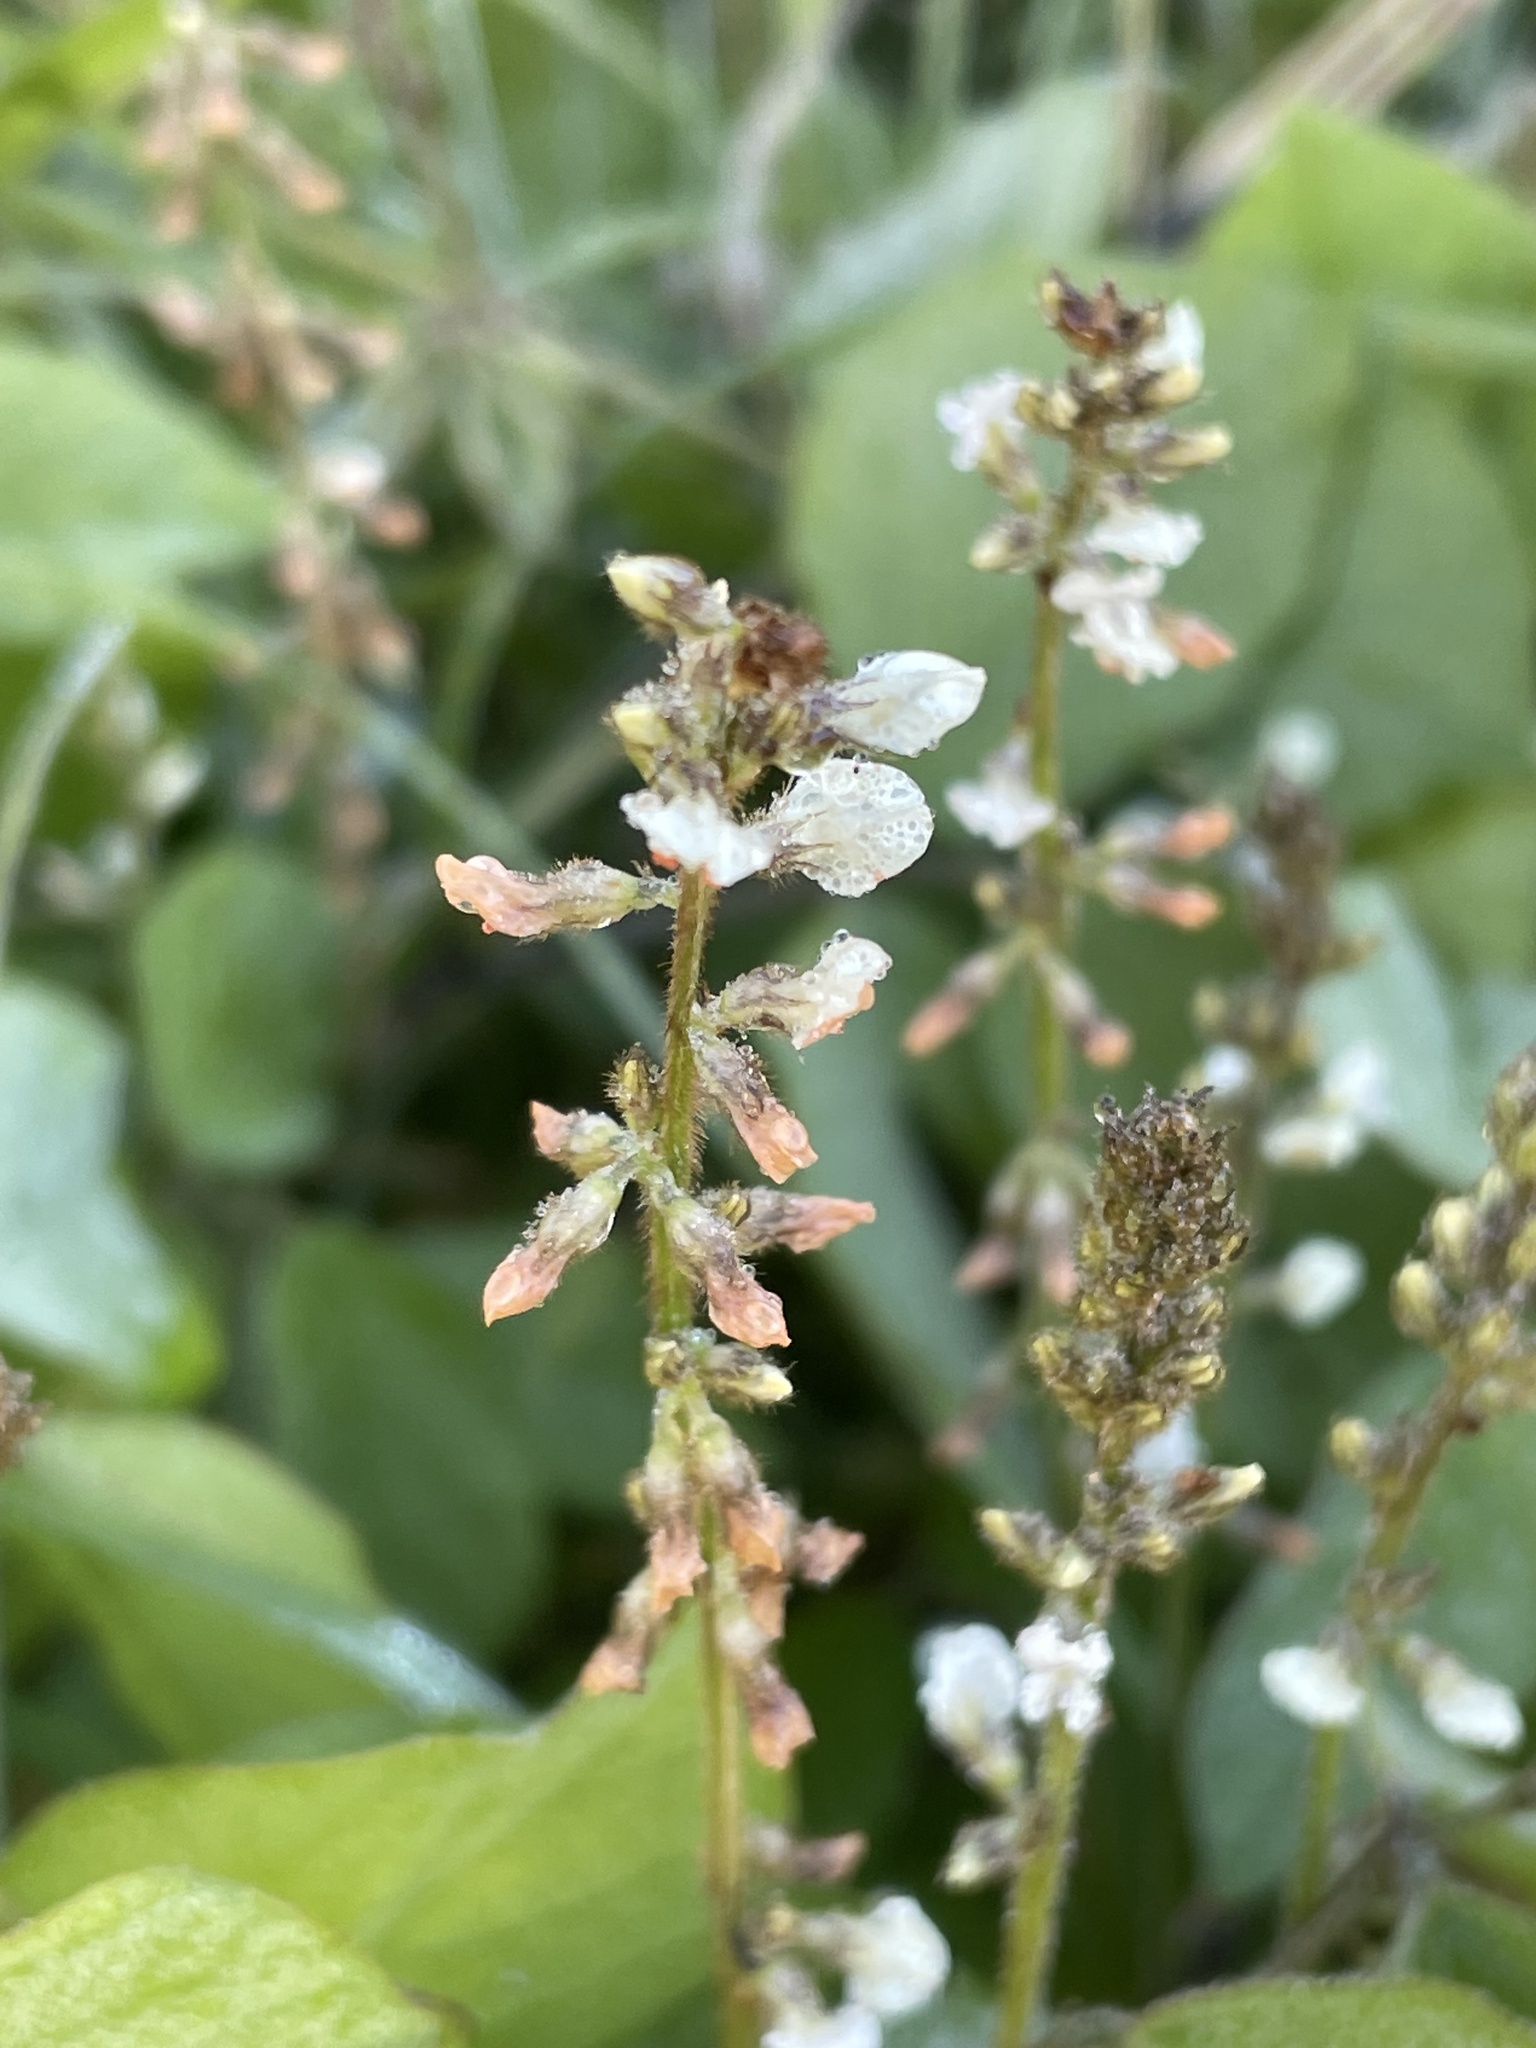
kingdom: Plantae
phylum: Tracheophyta
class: Magnoliopsida
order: Fabales
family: Fabaceae
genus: Neonotonia
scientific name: Neonotonia wightii
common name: Perennial soybean
